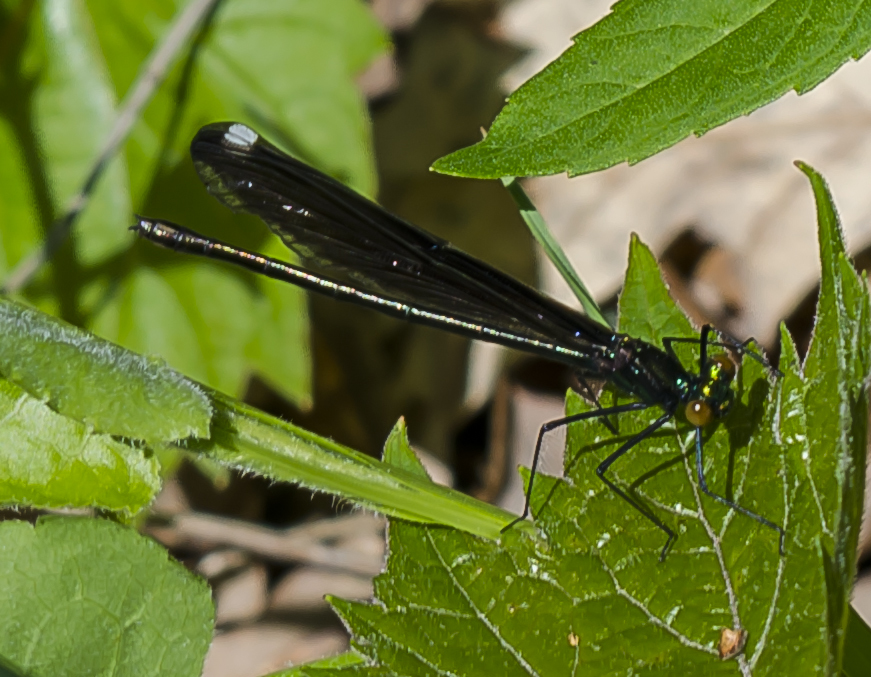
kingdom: Animalia
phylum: Arthropoda
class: Insecta
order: Odonata
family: Calopterygidae
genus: Calopteryx
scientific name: Calopteryx maculata
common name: Ebony jewelwing
